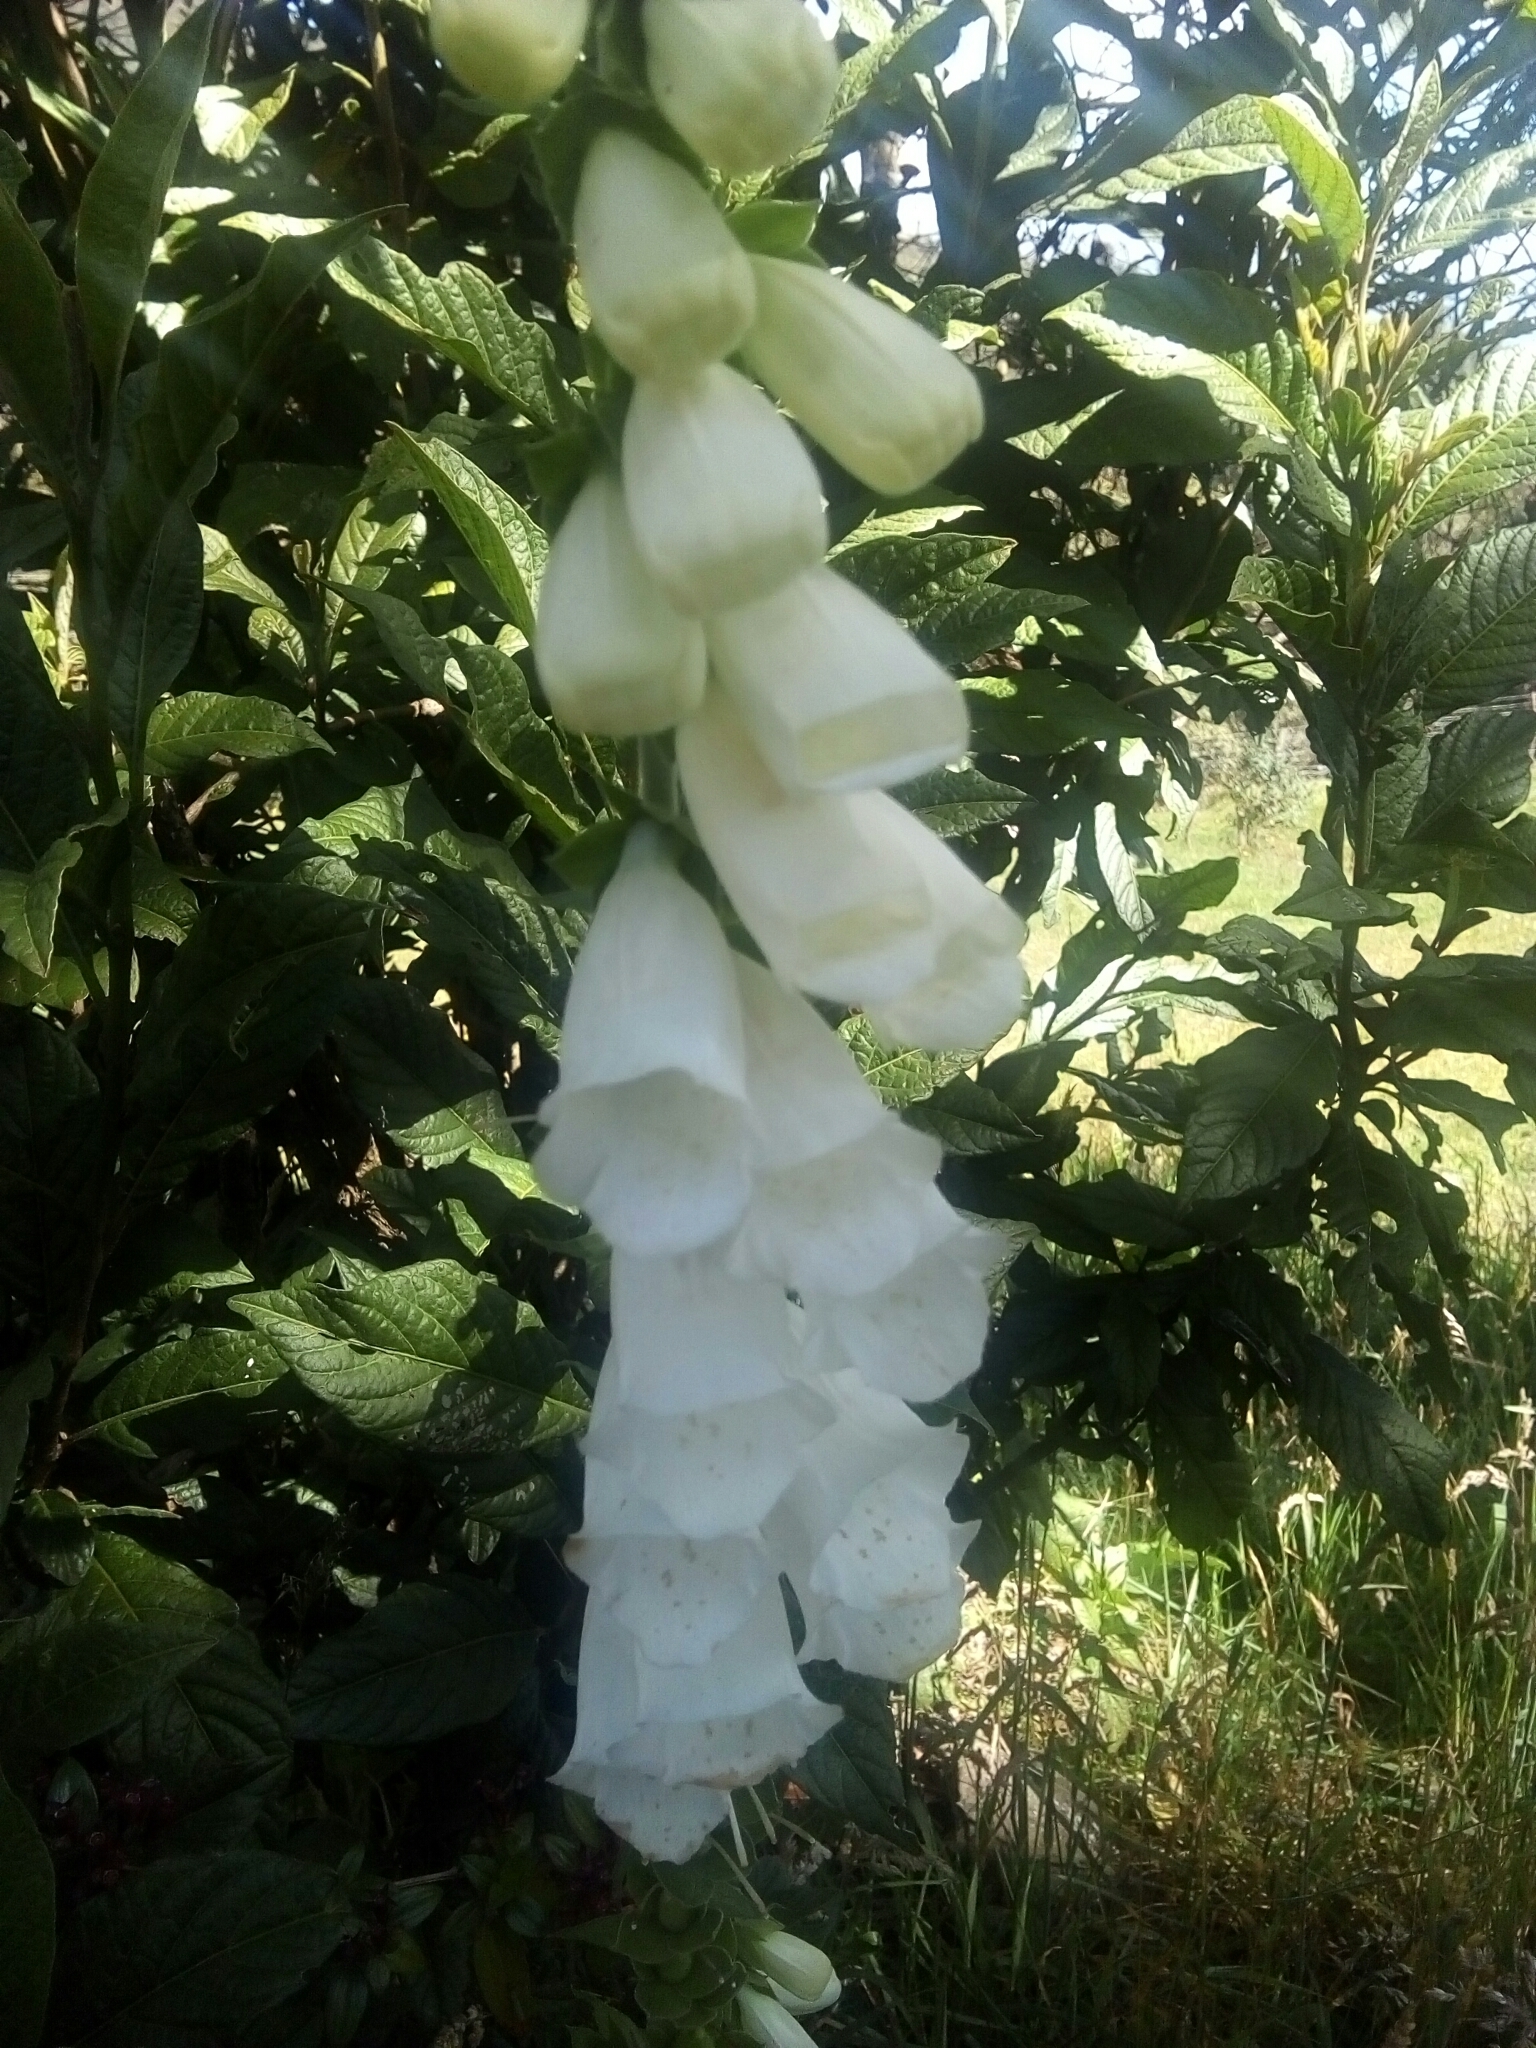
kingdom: Plantae
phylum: Tracheophyta
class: Magnoliopsida
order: Lamiales
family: Plantaginaceae
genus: Digitalis
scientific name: Digitalis purpurea
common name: Foxglove
